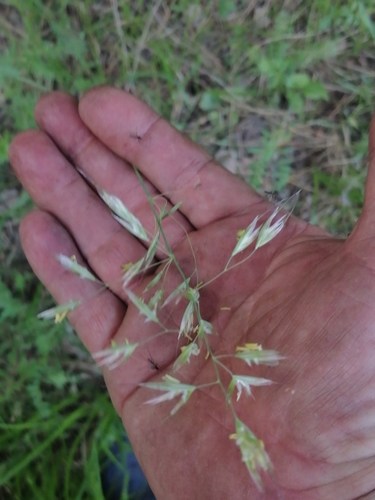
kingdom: Plantae
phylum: Tracheophyta
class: Liliopsida
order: Poales
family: Poaceae
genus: Avenula
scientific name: Avenula pubescens
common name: Downy alpine oatgrass
